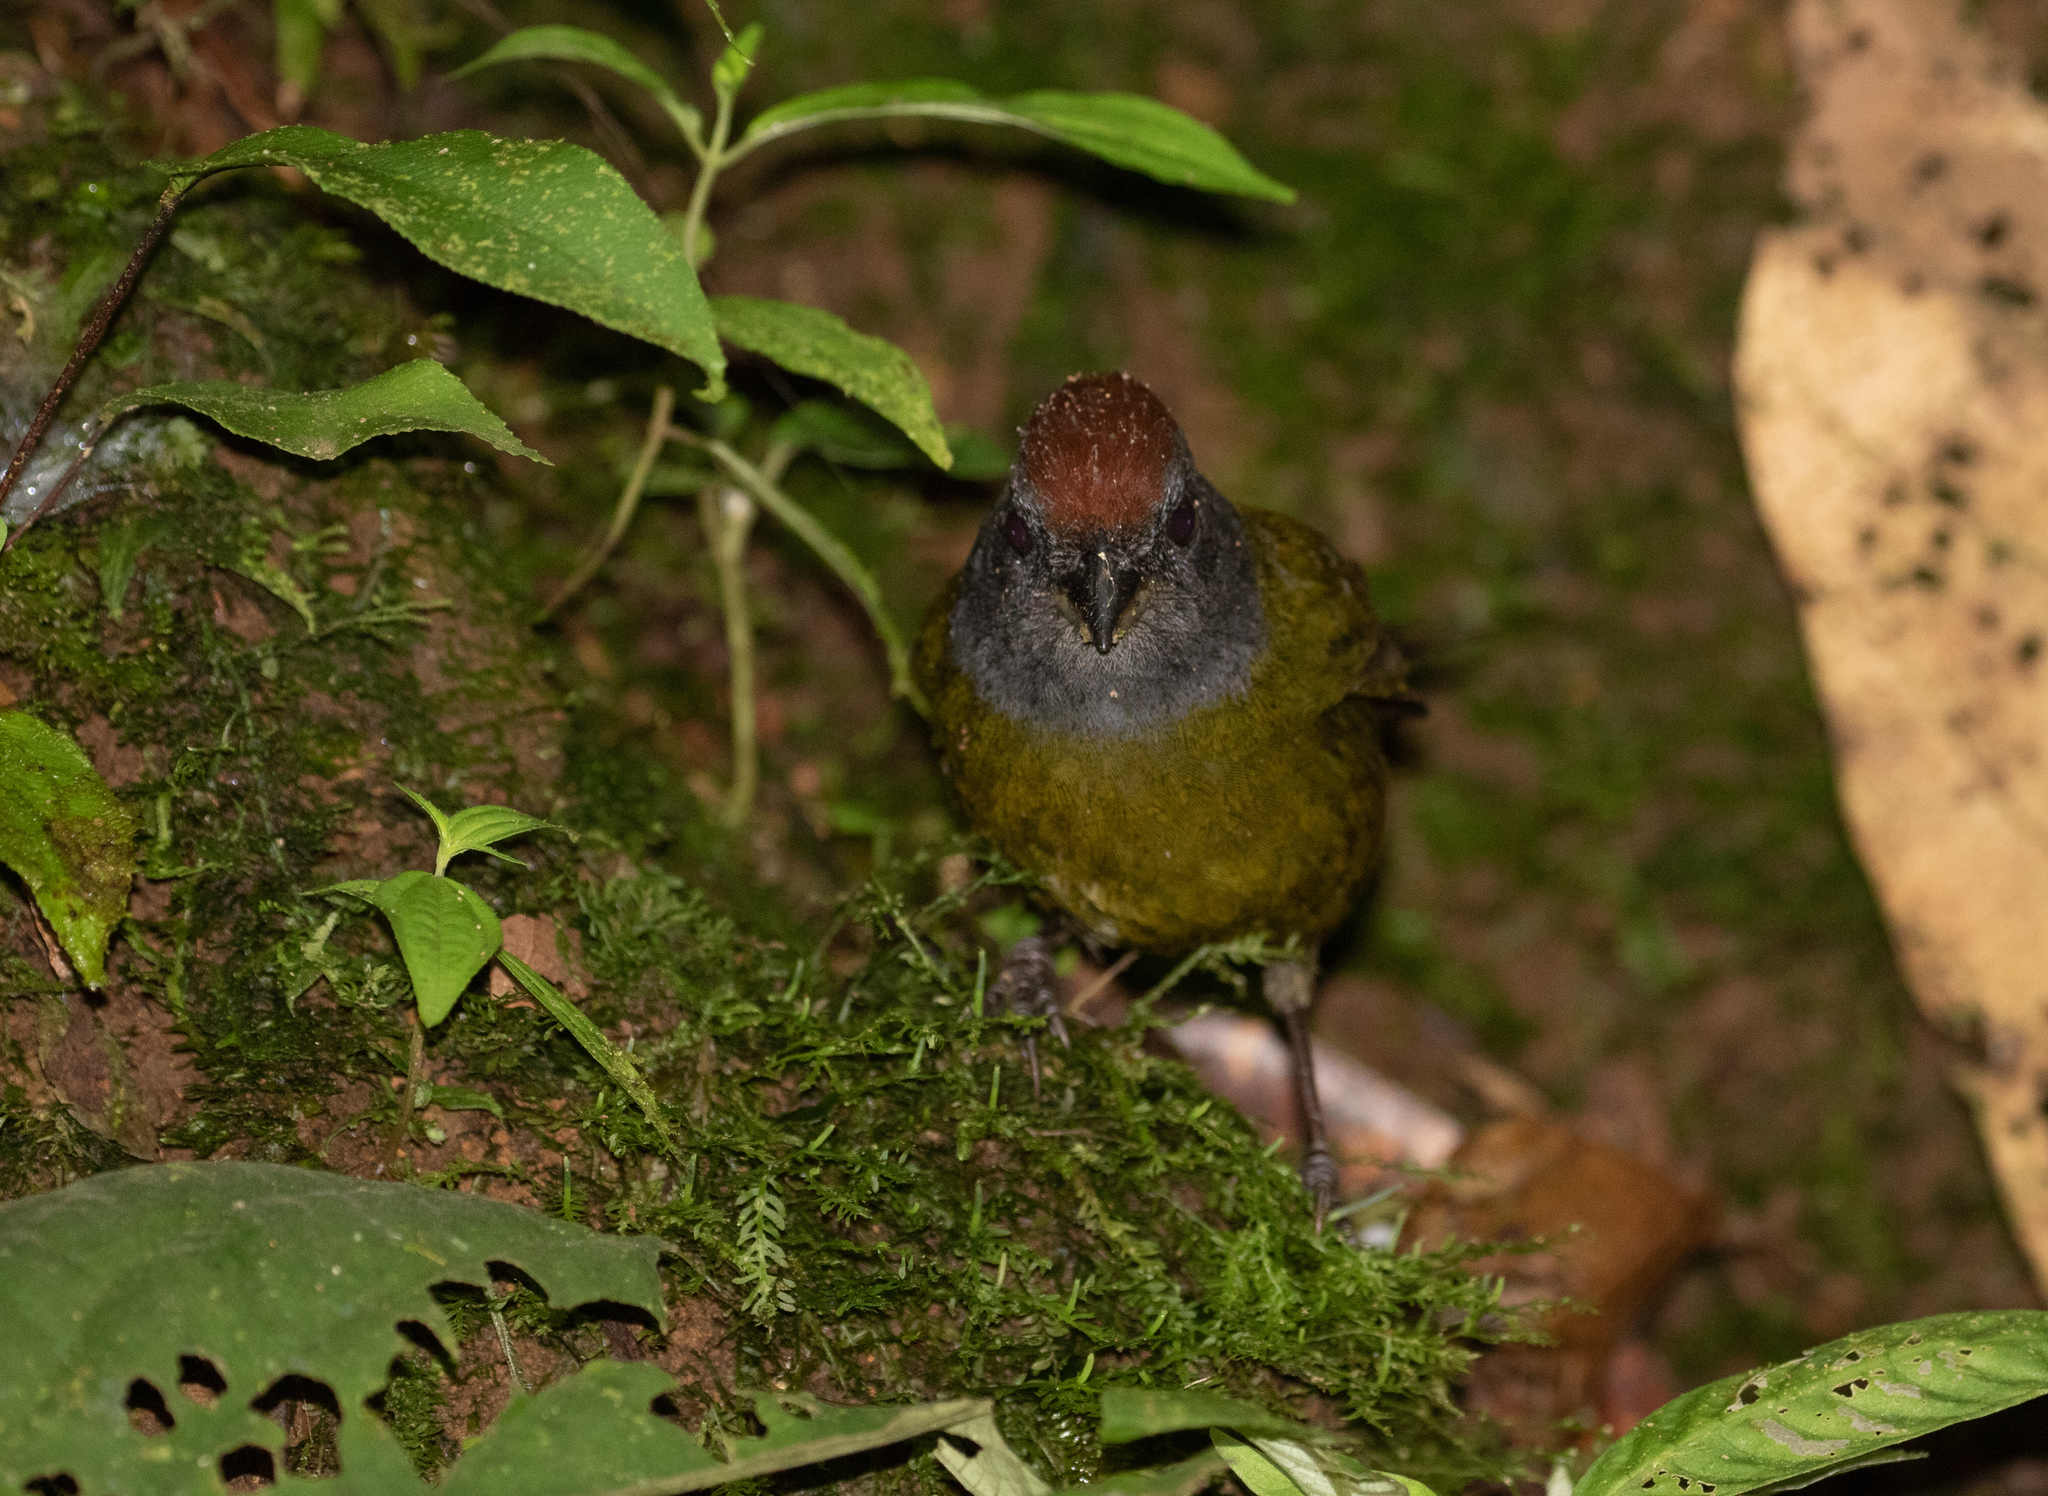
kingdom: Animalia
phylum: Chordata
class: Aves
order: Passeriformes
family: Passerellidae
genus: Arremon
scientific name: Arremon castaneiceps
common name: Olive finch
